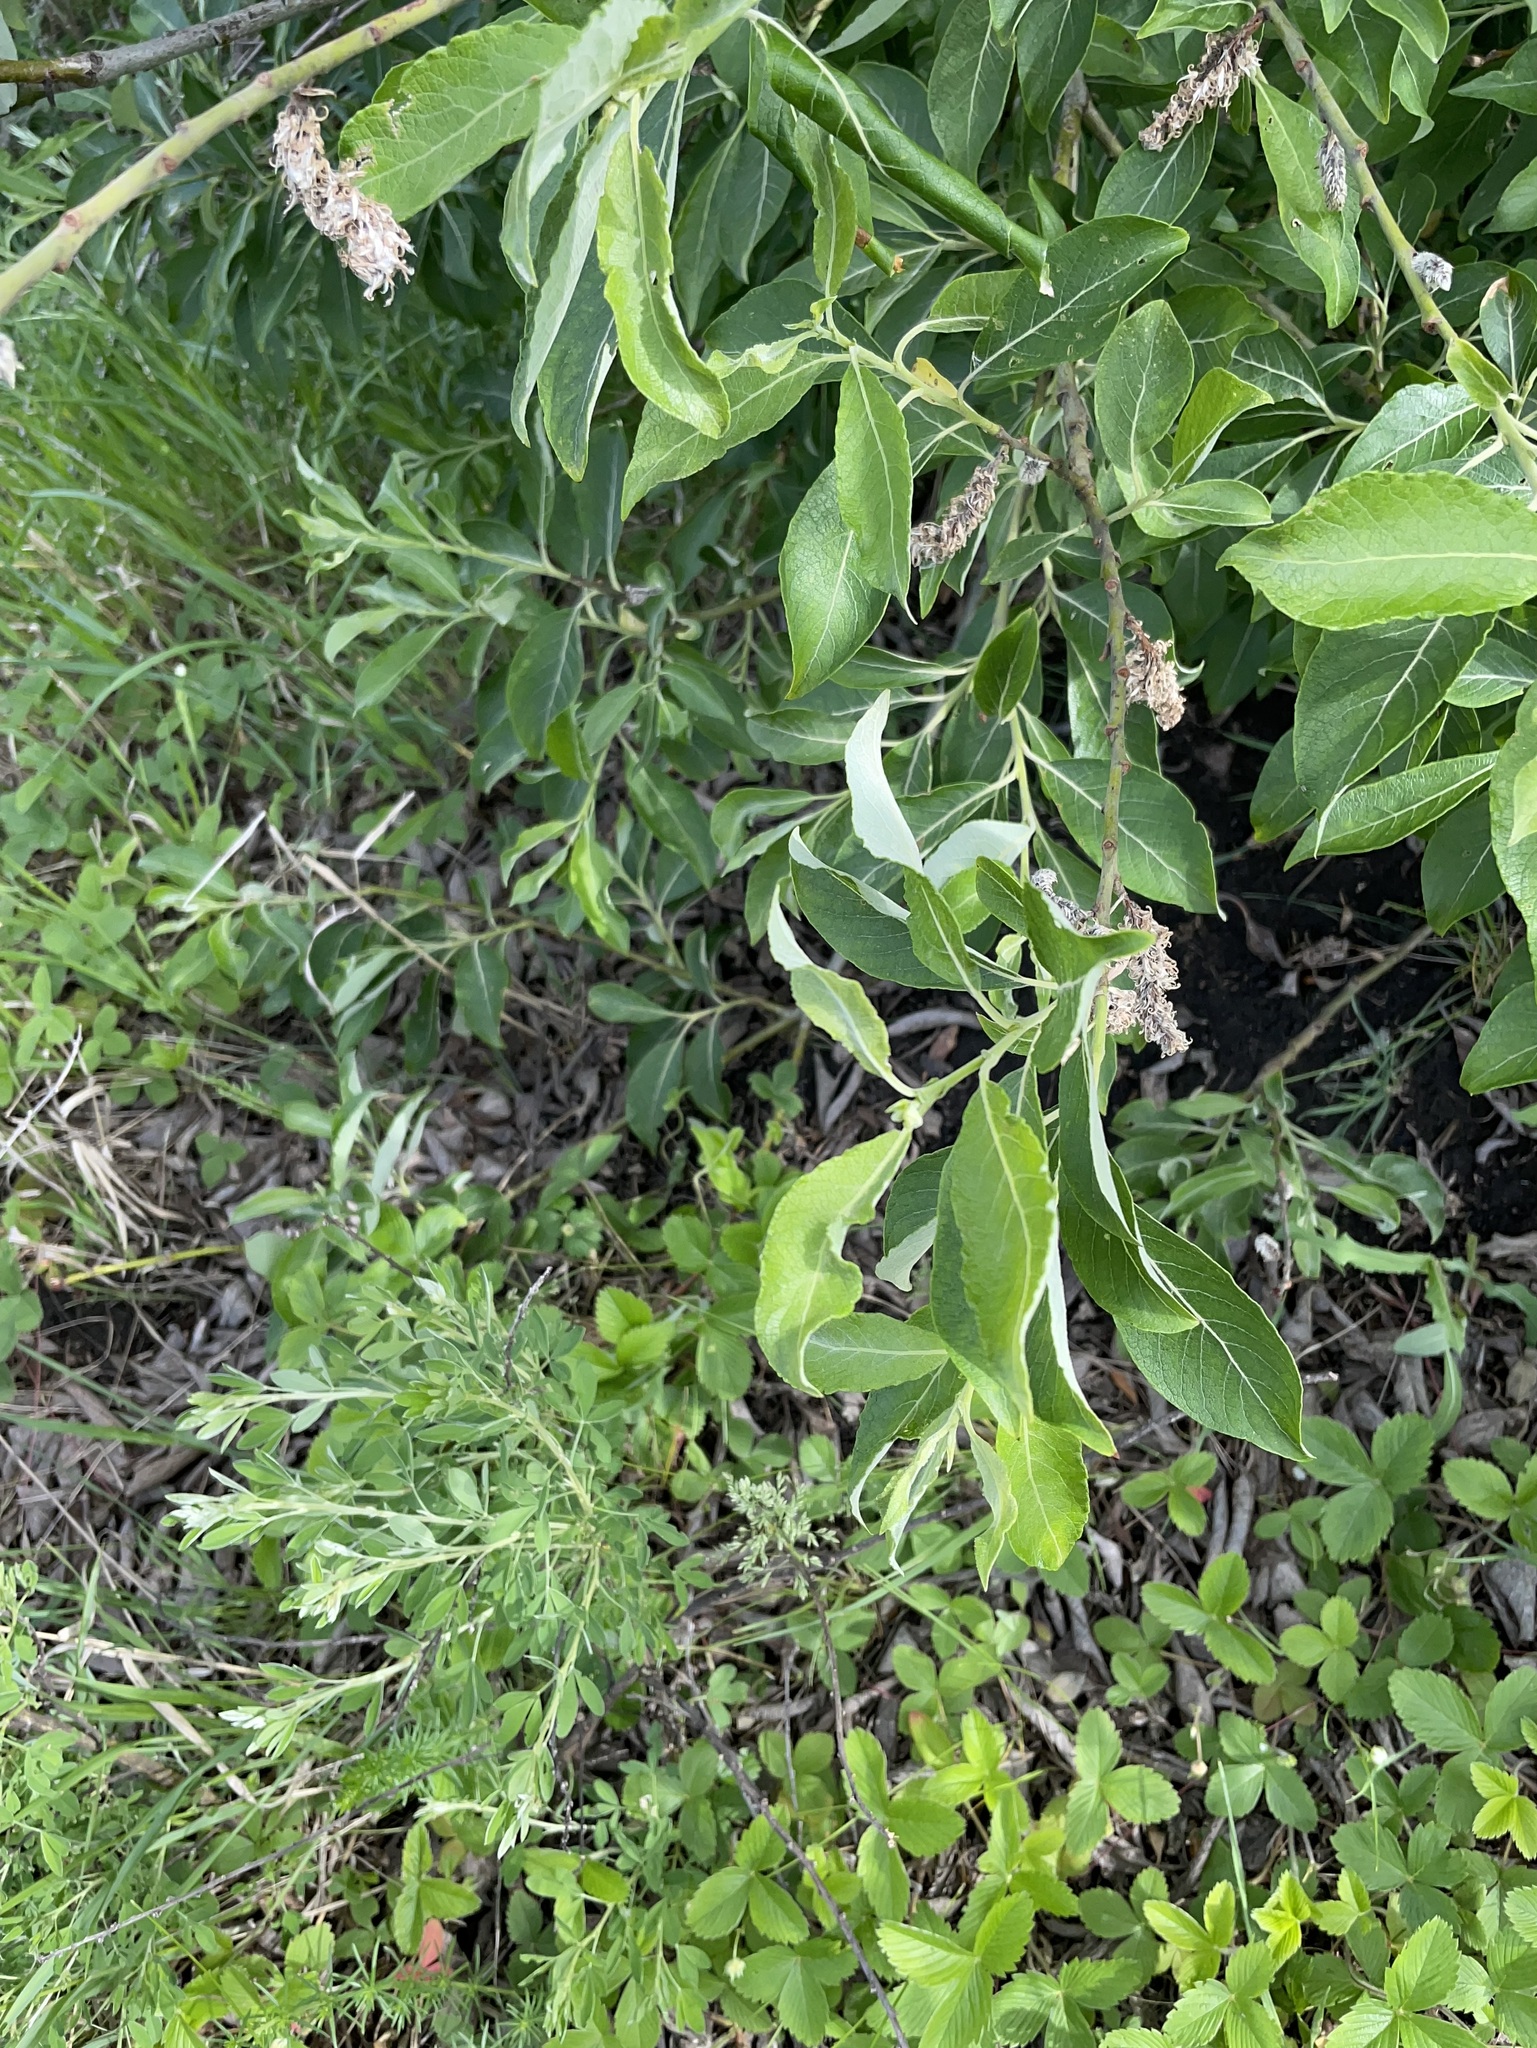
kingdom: Plantae
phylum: Tracheophyta
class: Magnoliopsida
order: Malpighiales
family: Salicaceae
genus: Salix
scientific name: Salix cinerea
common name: Common sallow
